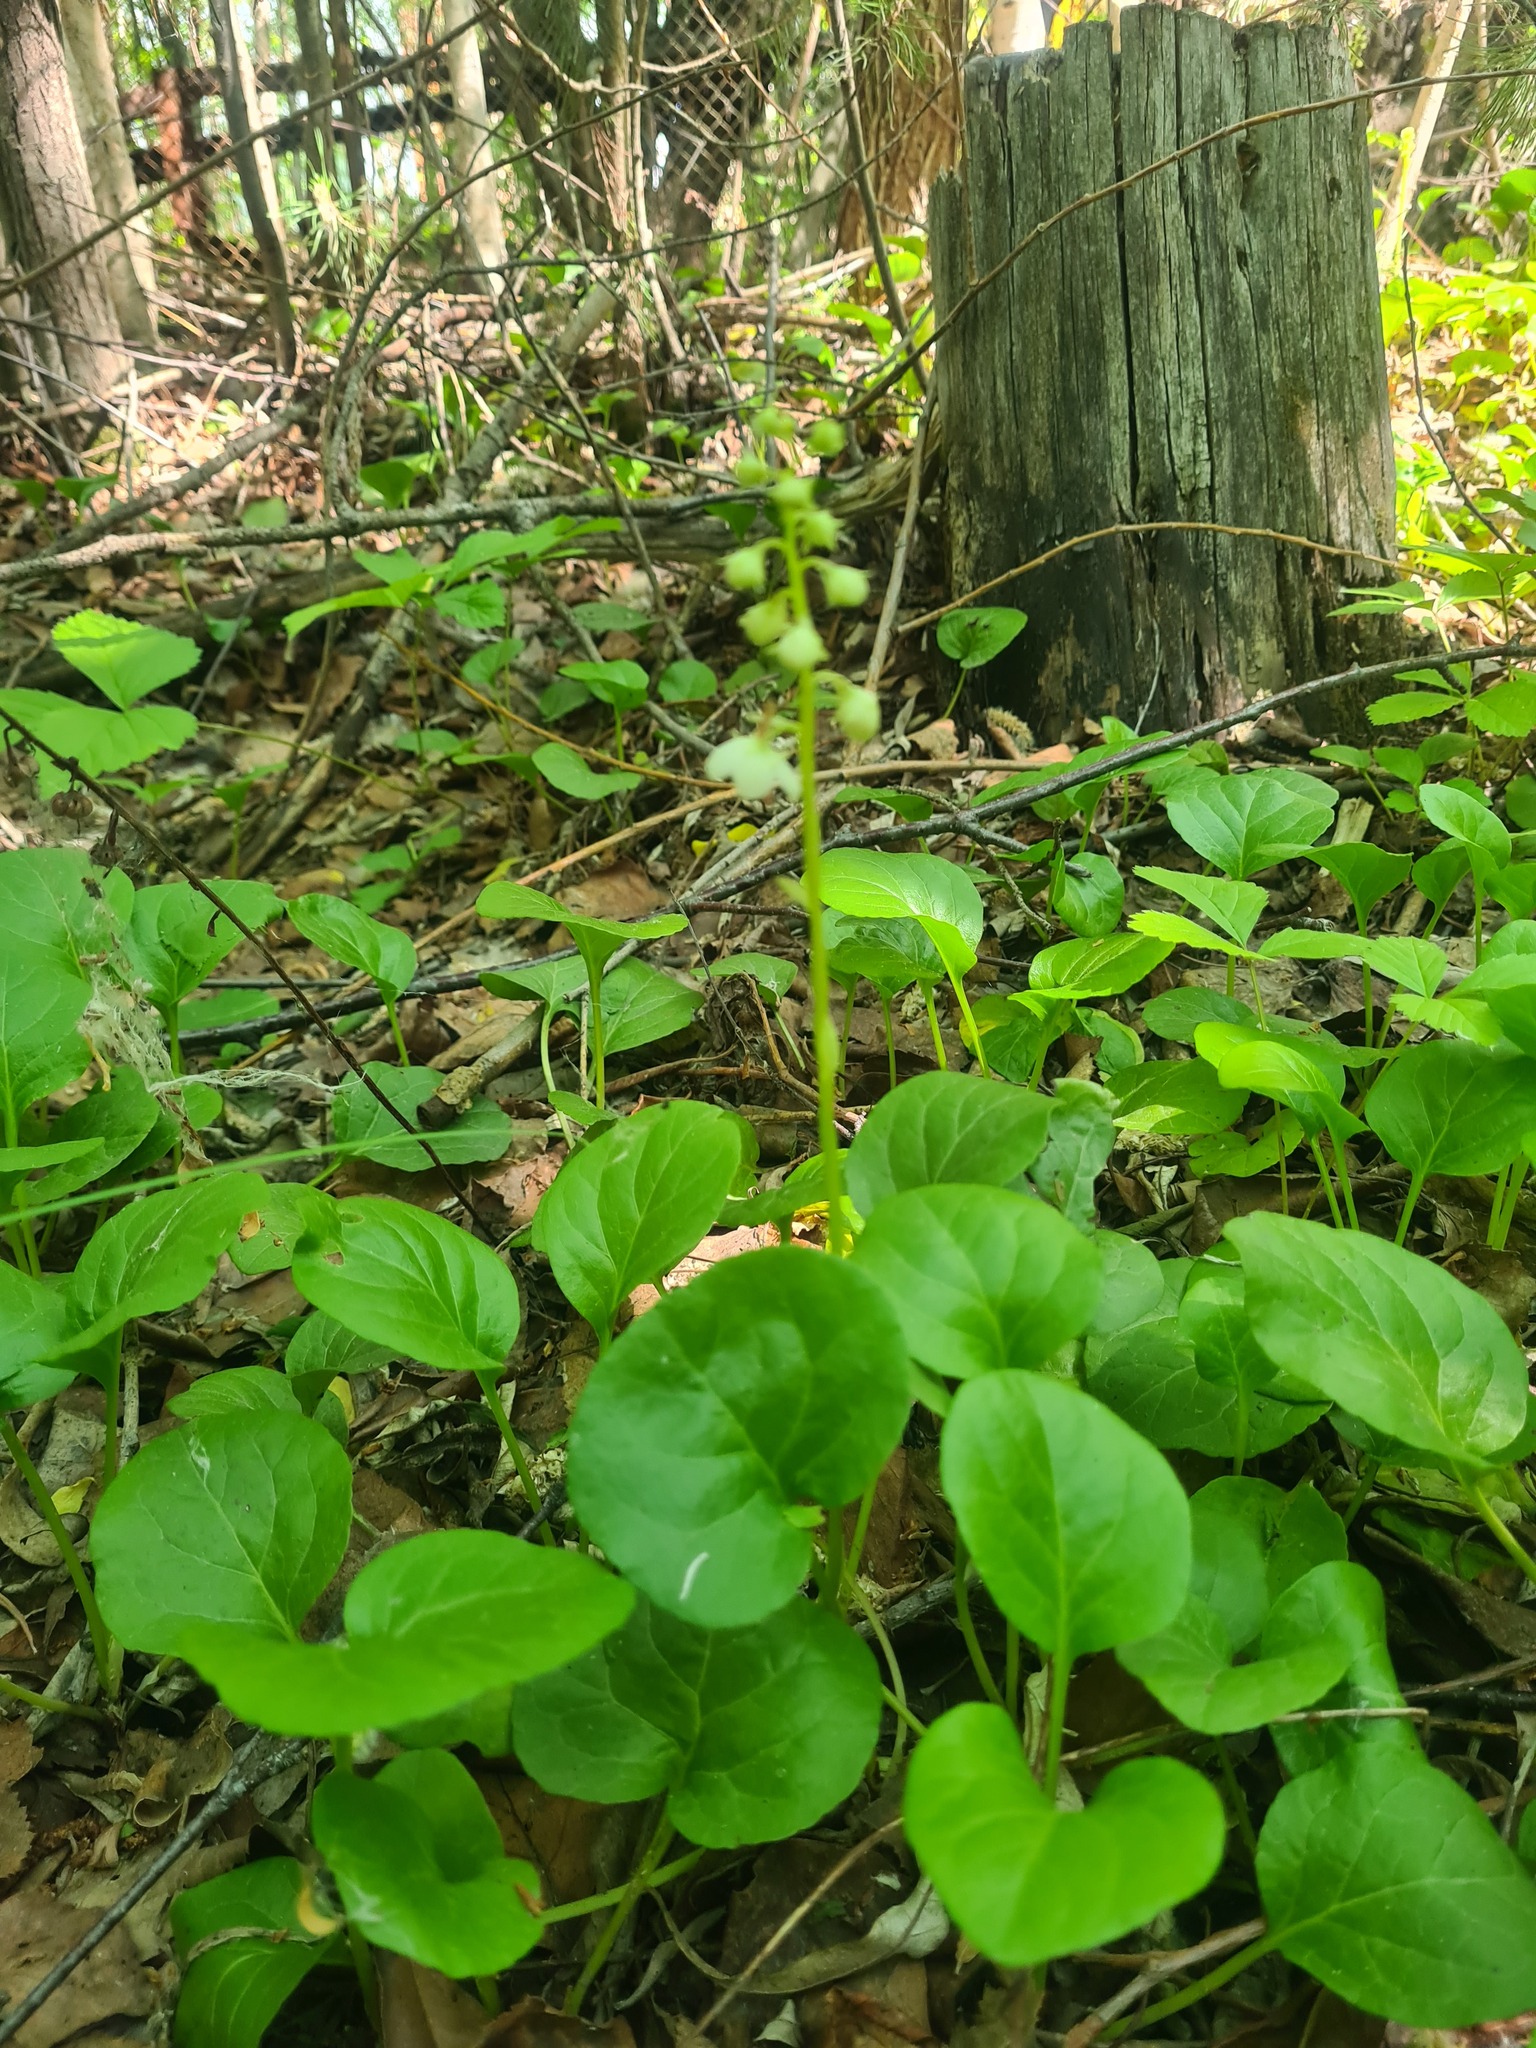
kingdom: Plantae
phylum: Tracheophyta
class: Magnoliopsida
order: Ericales
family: Ericaceae
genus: Pyrola
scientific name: Pyrola rotundifolia
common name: Round-leaved wintergreen
